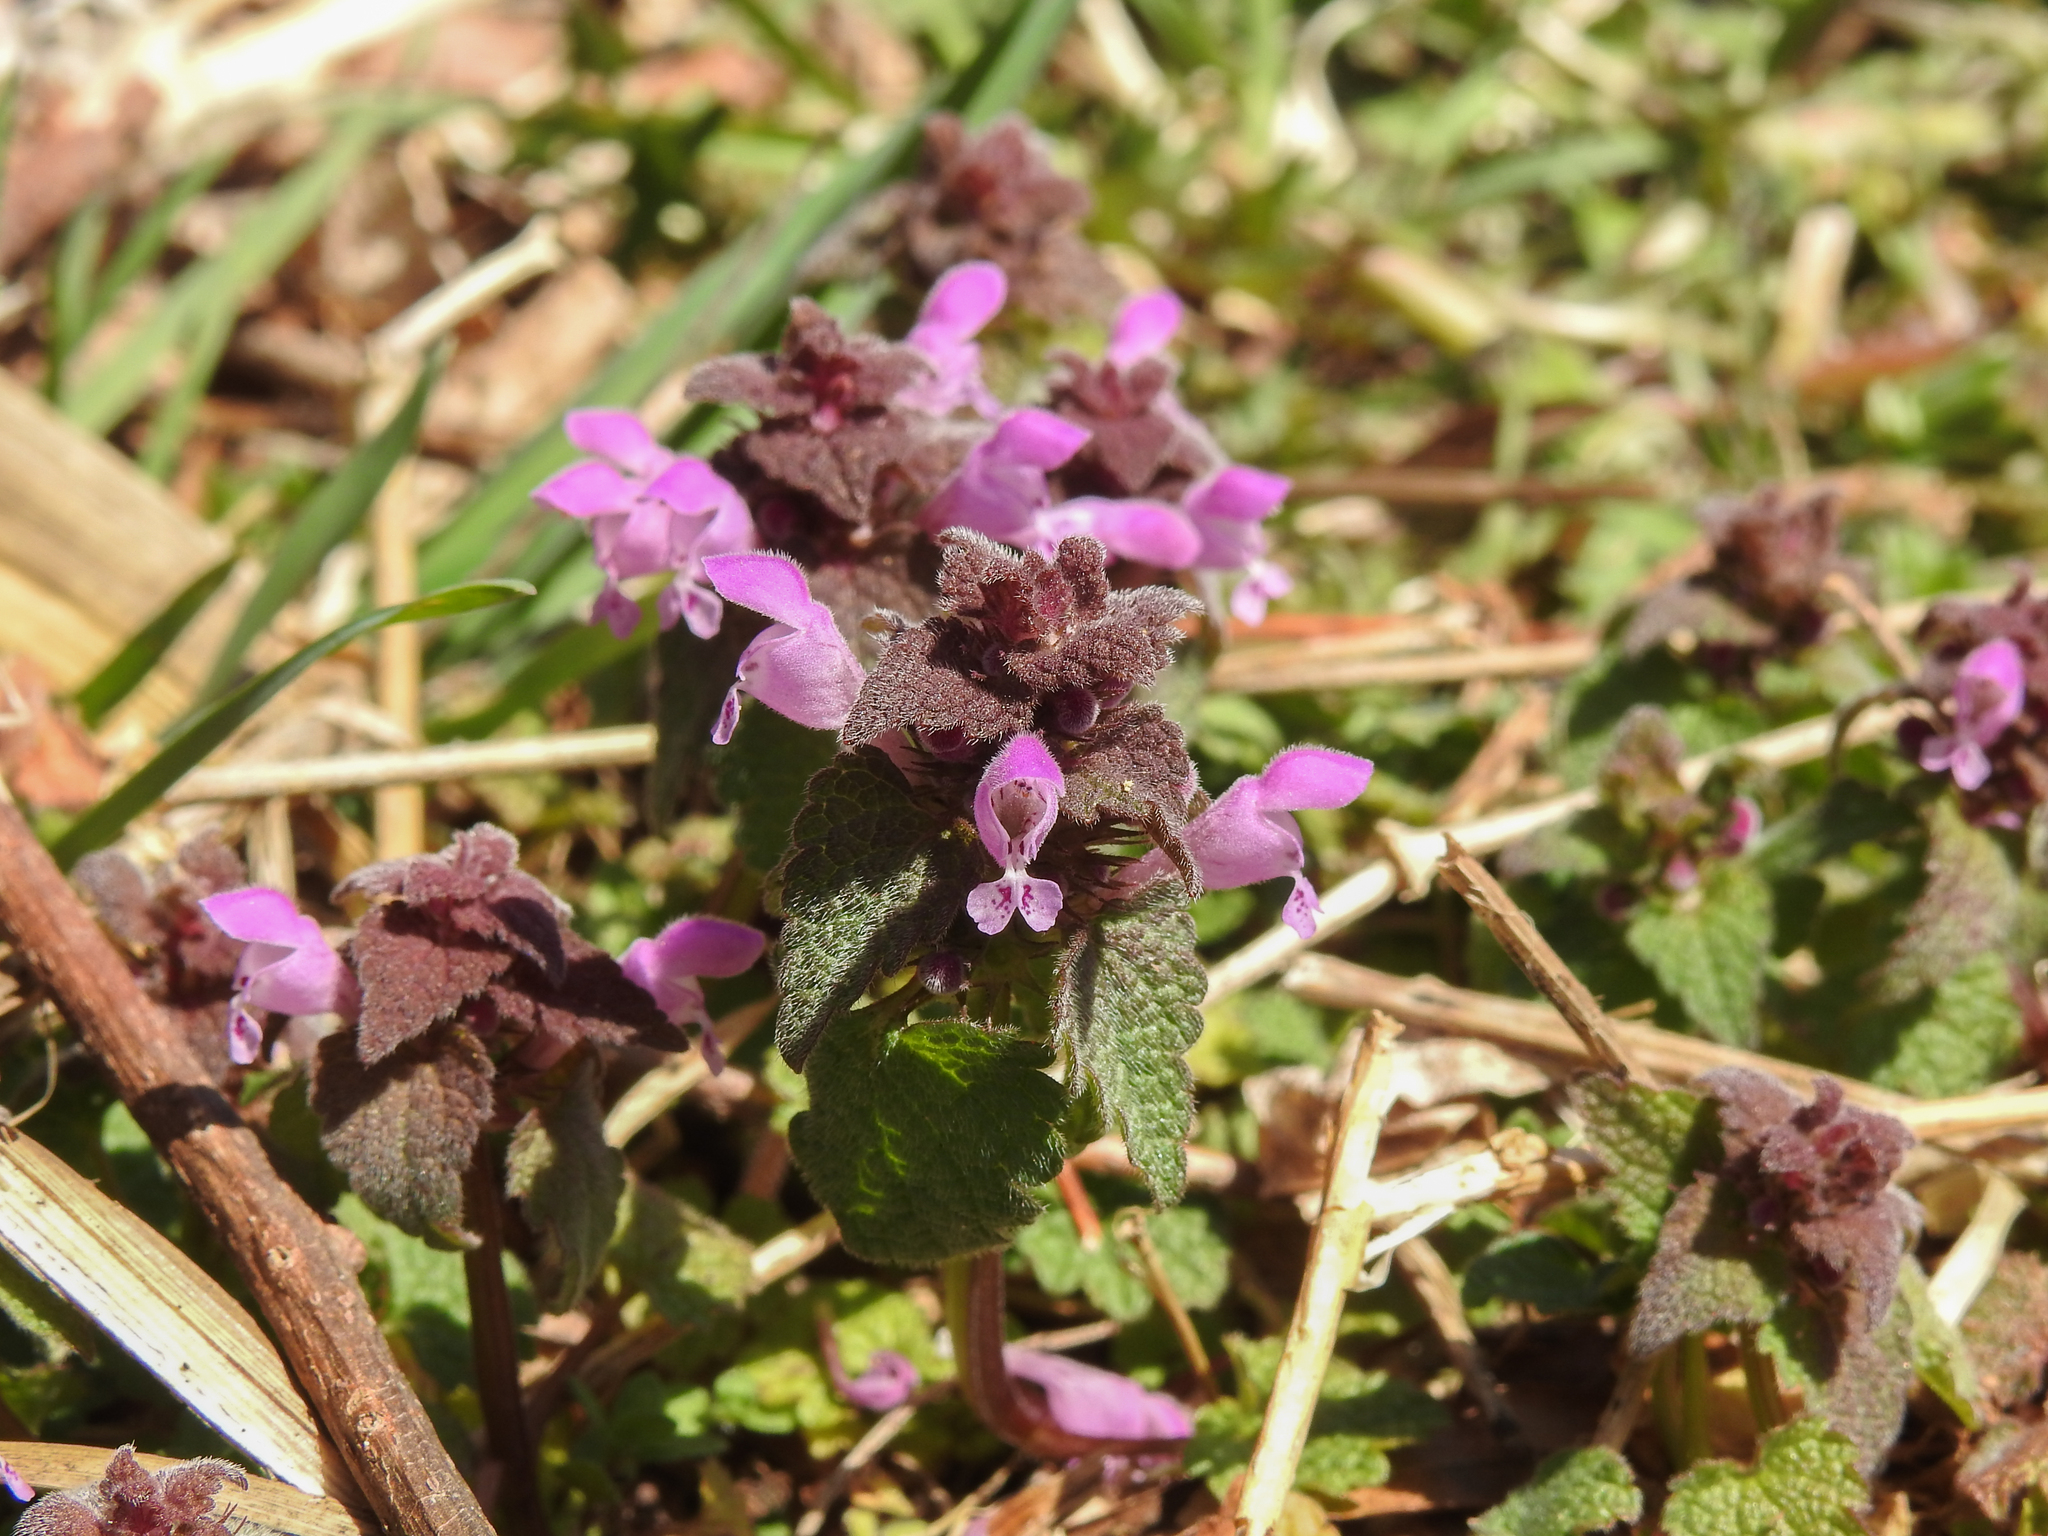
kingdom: Plantae
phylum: Tracheophyta
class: Magnoliopsida
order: Lamiales
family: Lamiaceae
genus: Lamium
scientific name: Lamium purpureum
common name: Red dead-nettle
